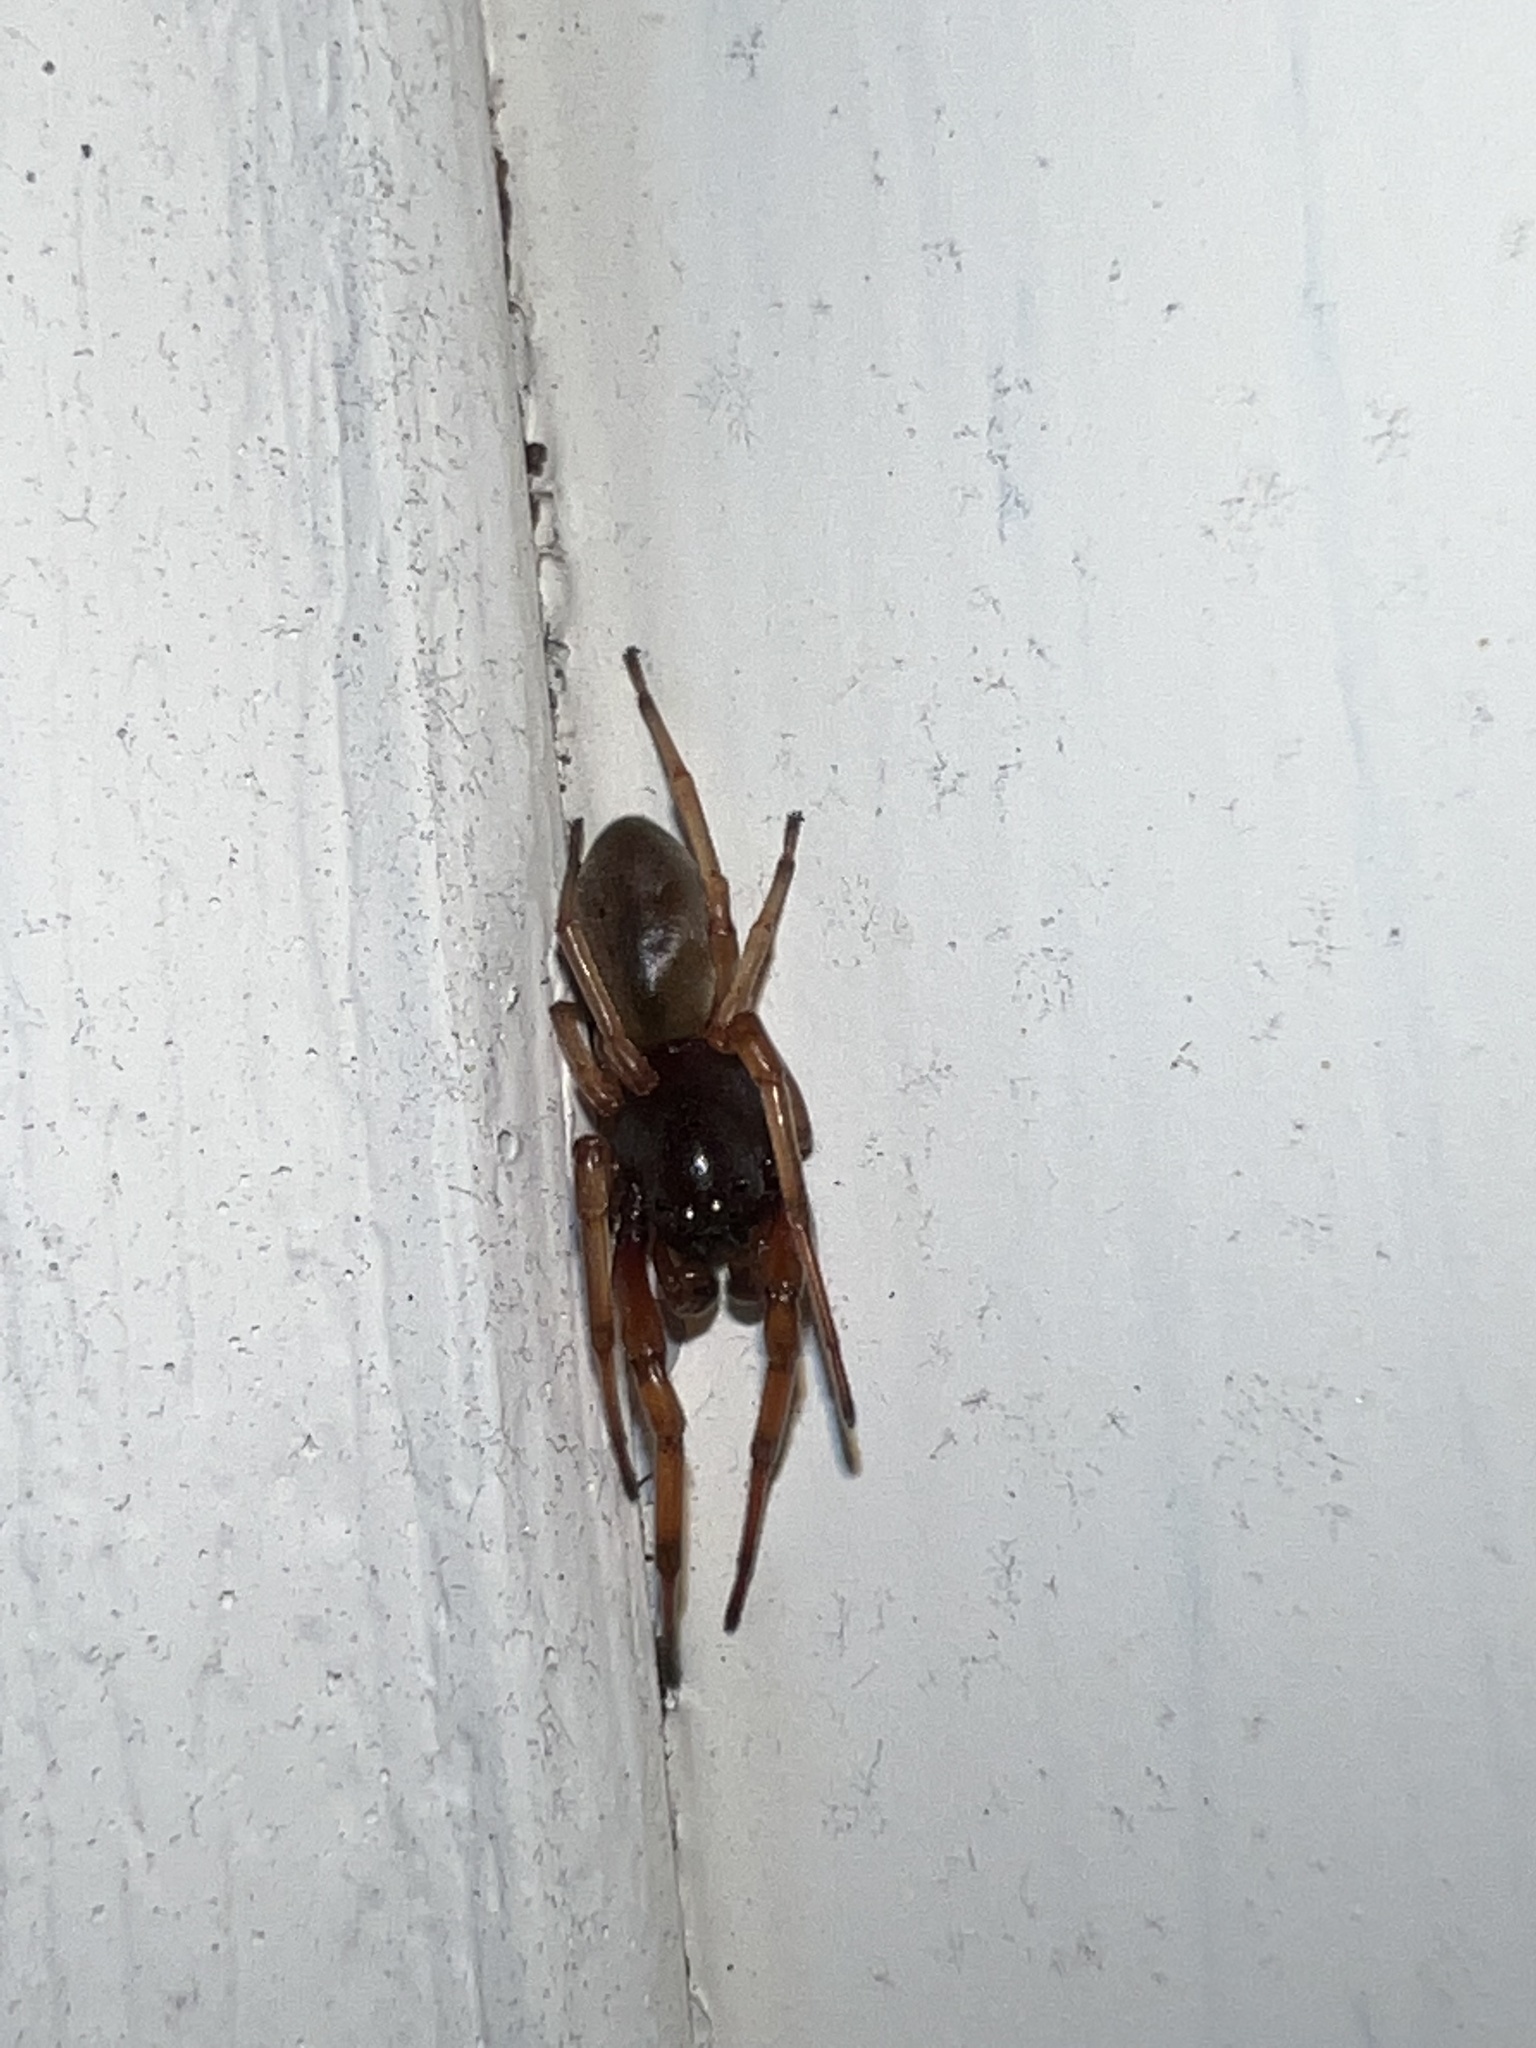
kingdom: Animalia
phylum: Arthropoda
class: Arachnida
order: Araneae
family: Trachelidae
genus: Trachelas
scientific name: Trachelas tranquillus
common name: Broad-faced sac spider
